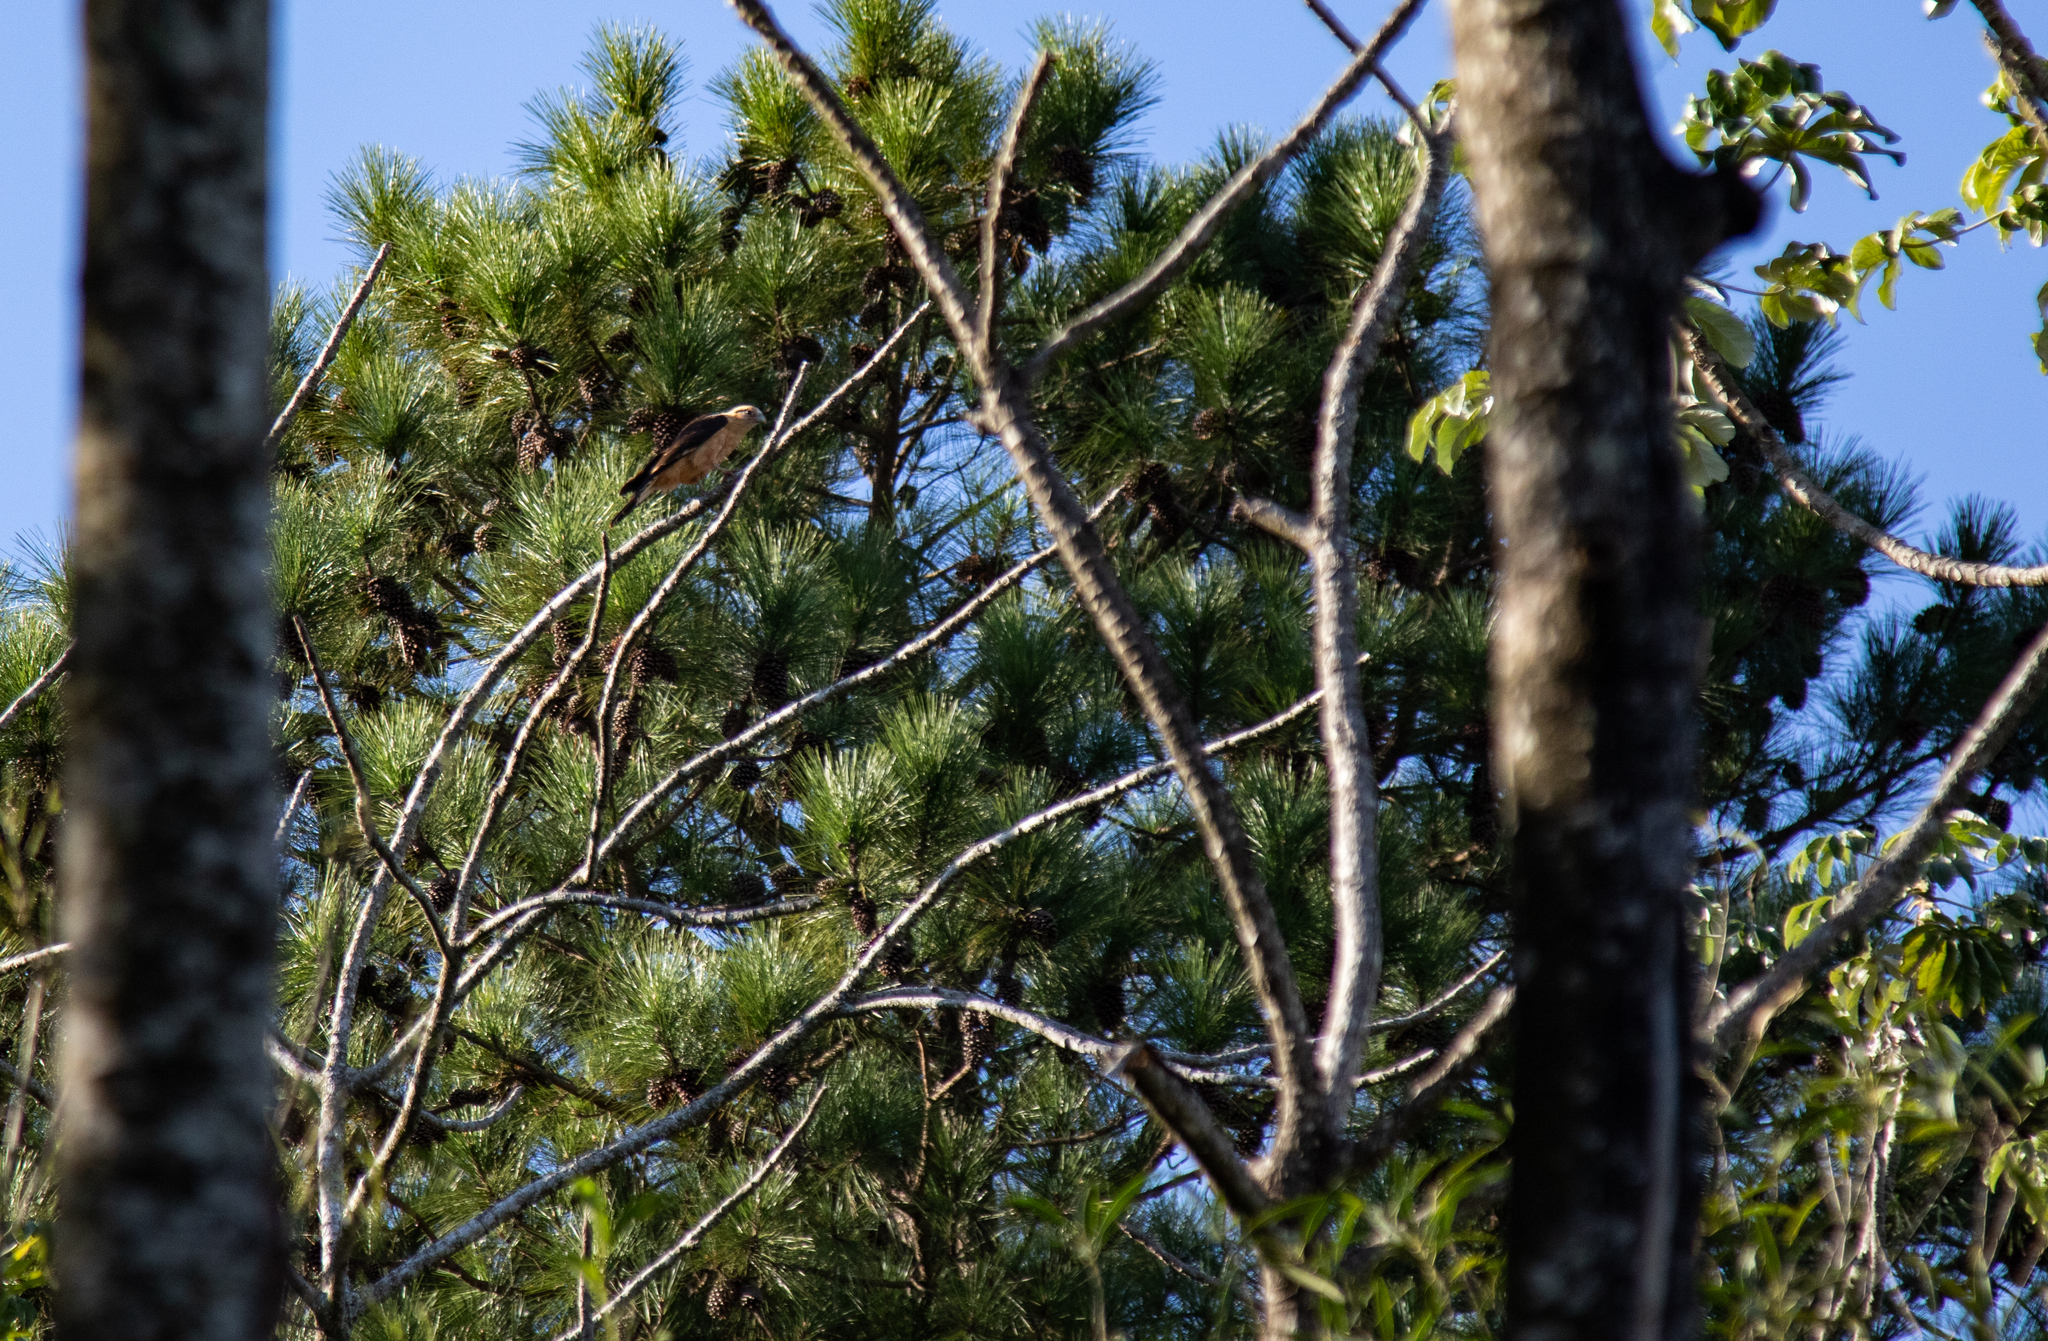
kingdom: Animalia
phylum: Chordata
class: Aves
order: Falconiformes
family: Falconidae
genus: Daptrius
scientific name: Daptrius
